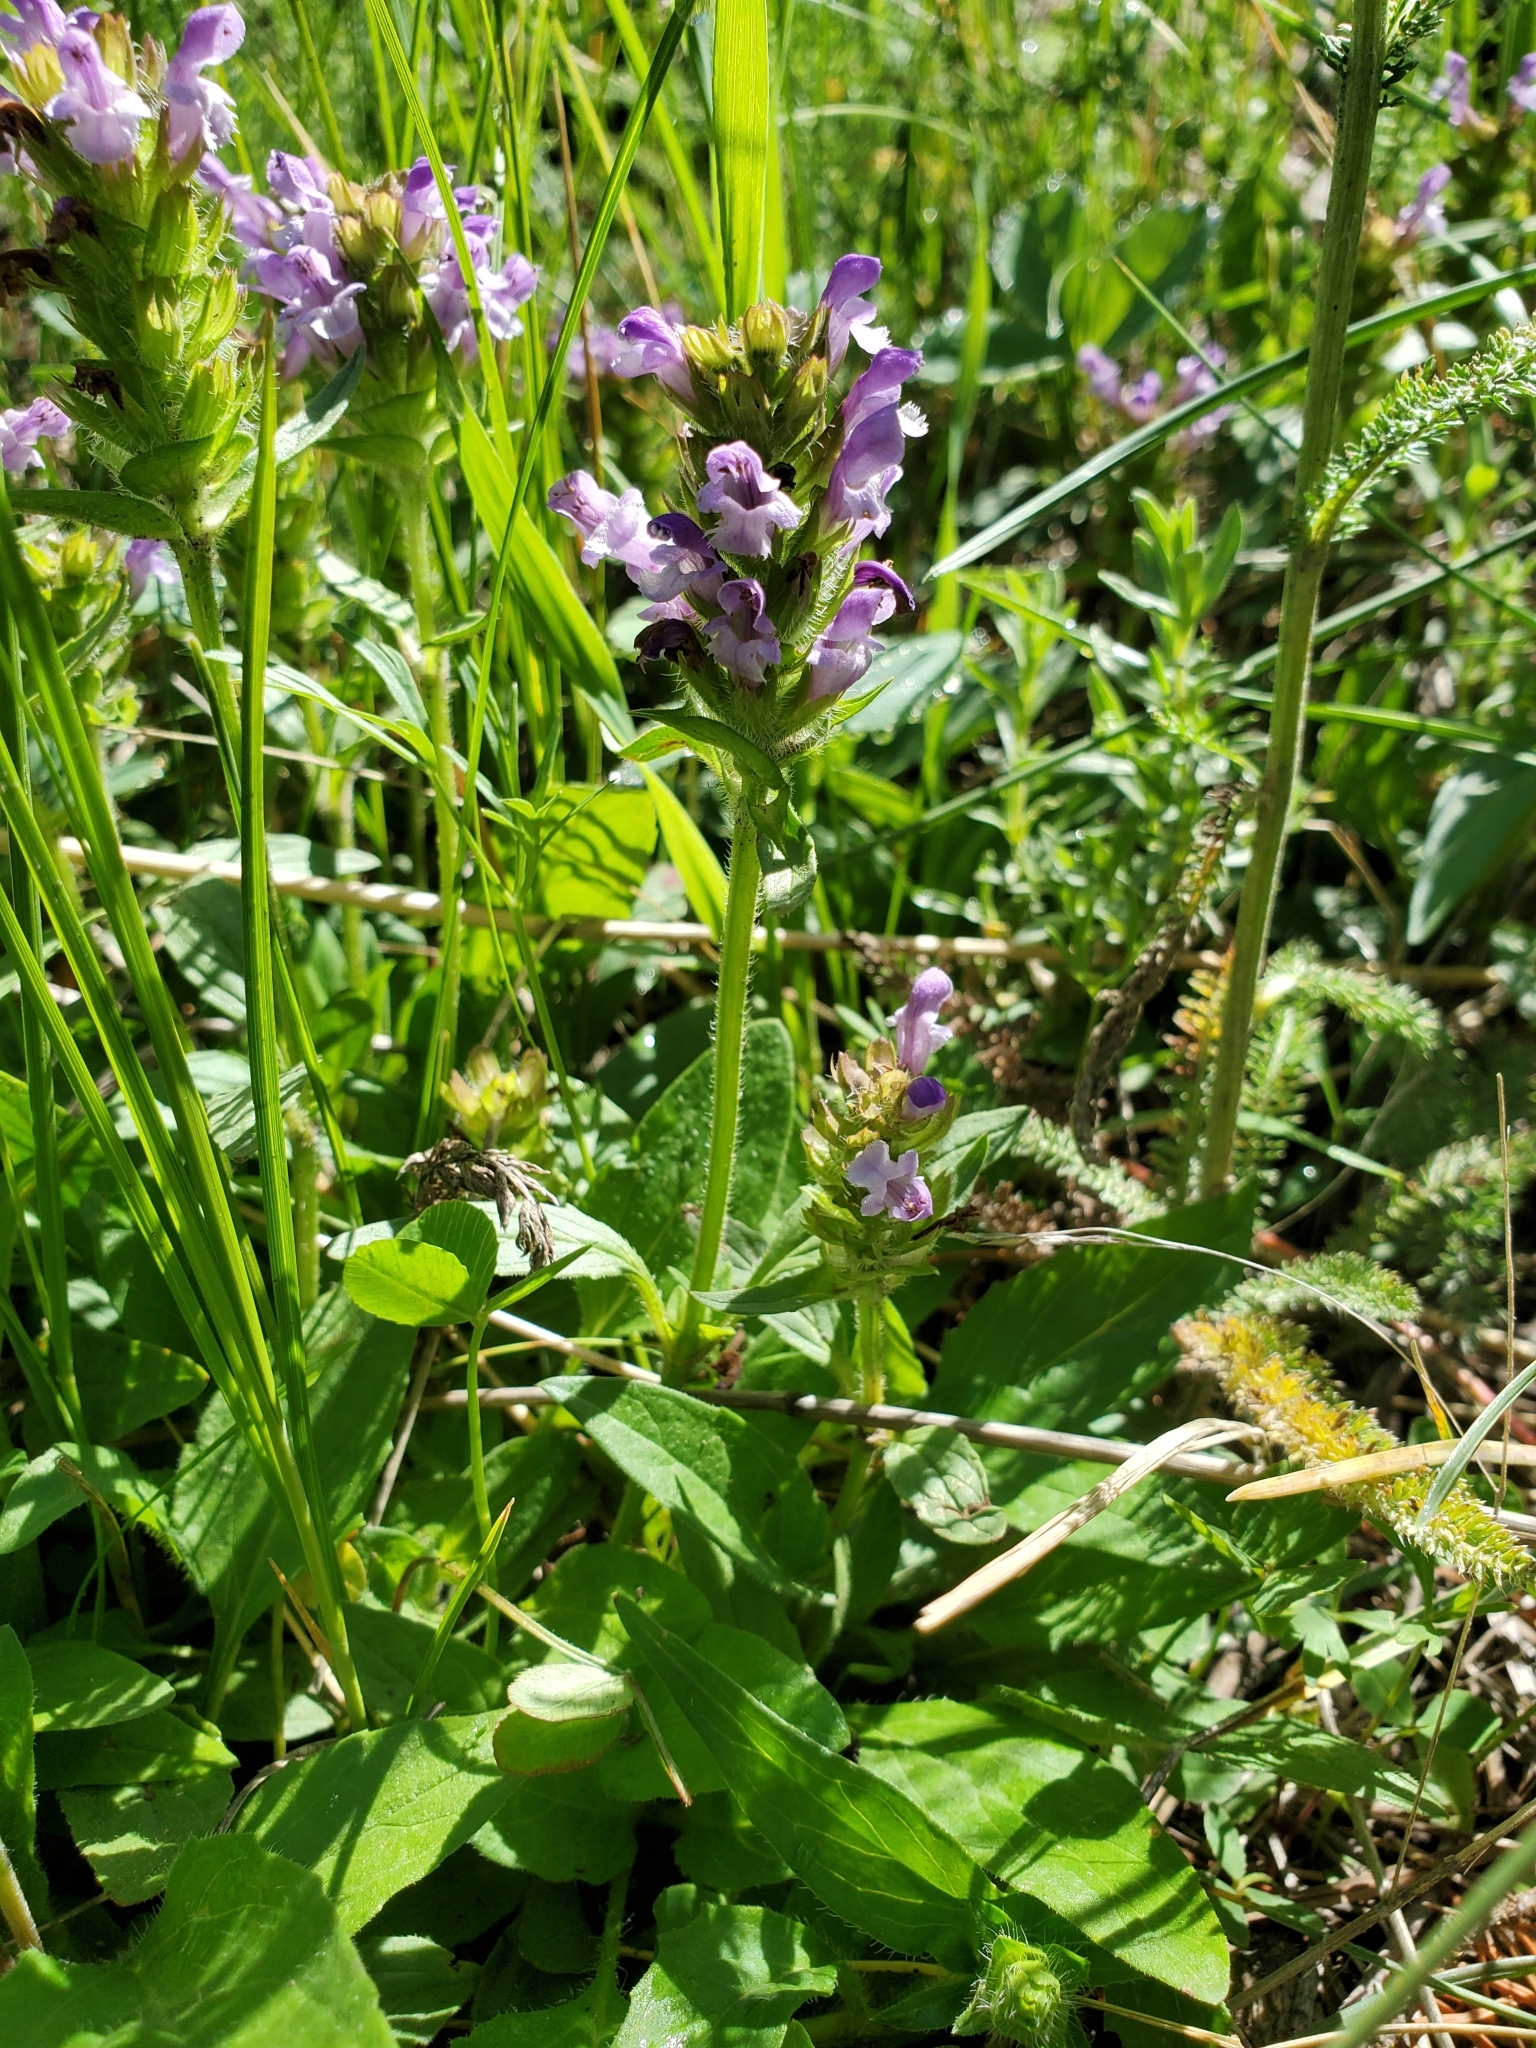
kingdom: Plantae
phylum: Tracheophyta
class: Magnoliopsida
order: Lamiales
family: Lamiaceae
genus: Prunella
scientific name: Prunella vulgaris
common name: Heal-all
